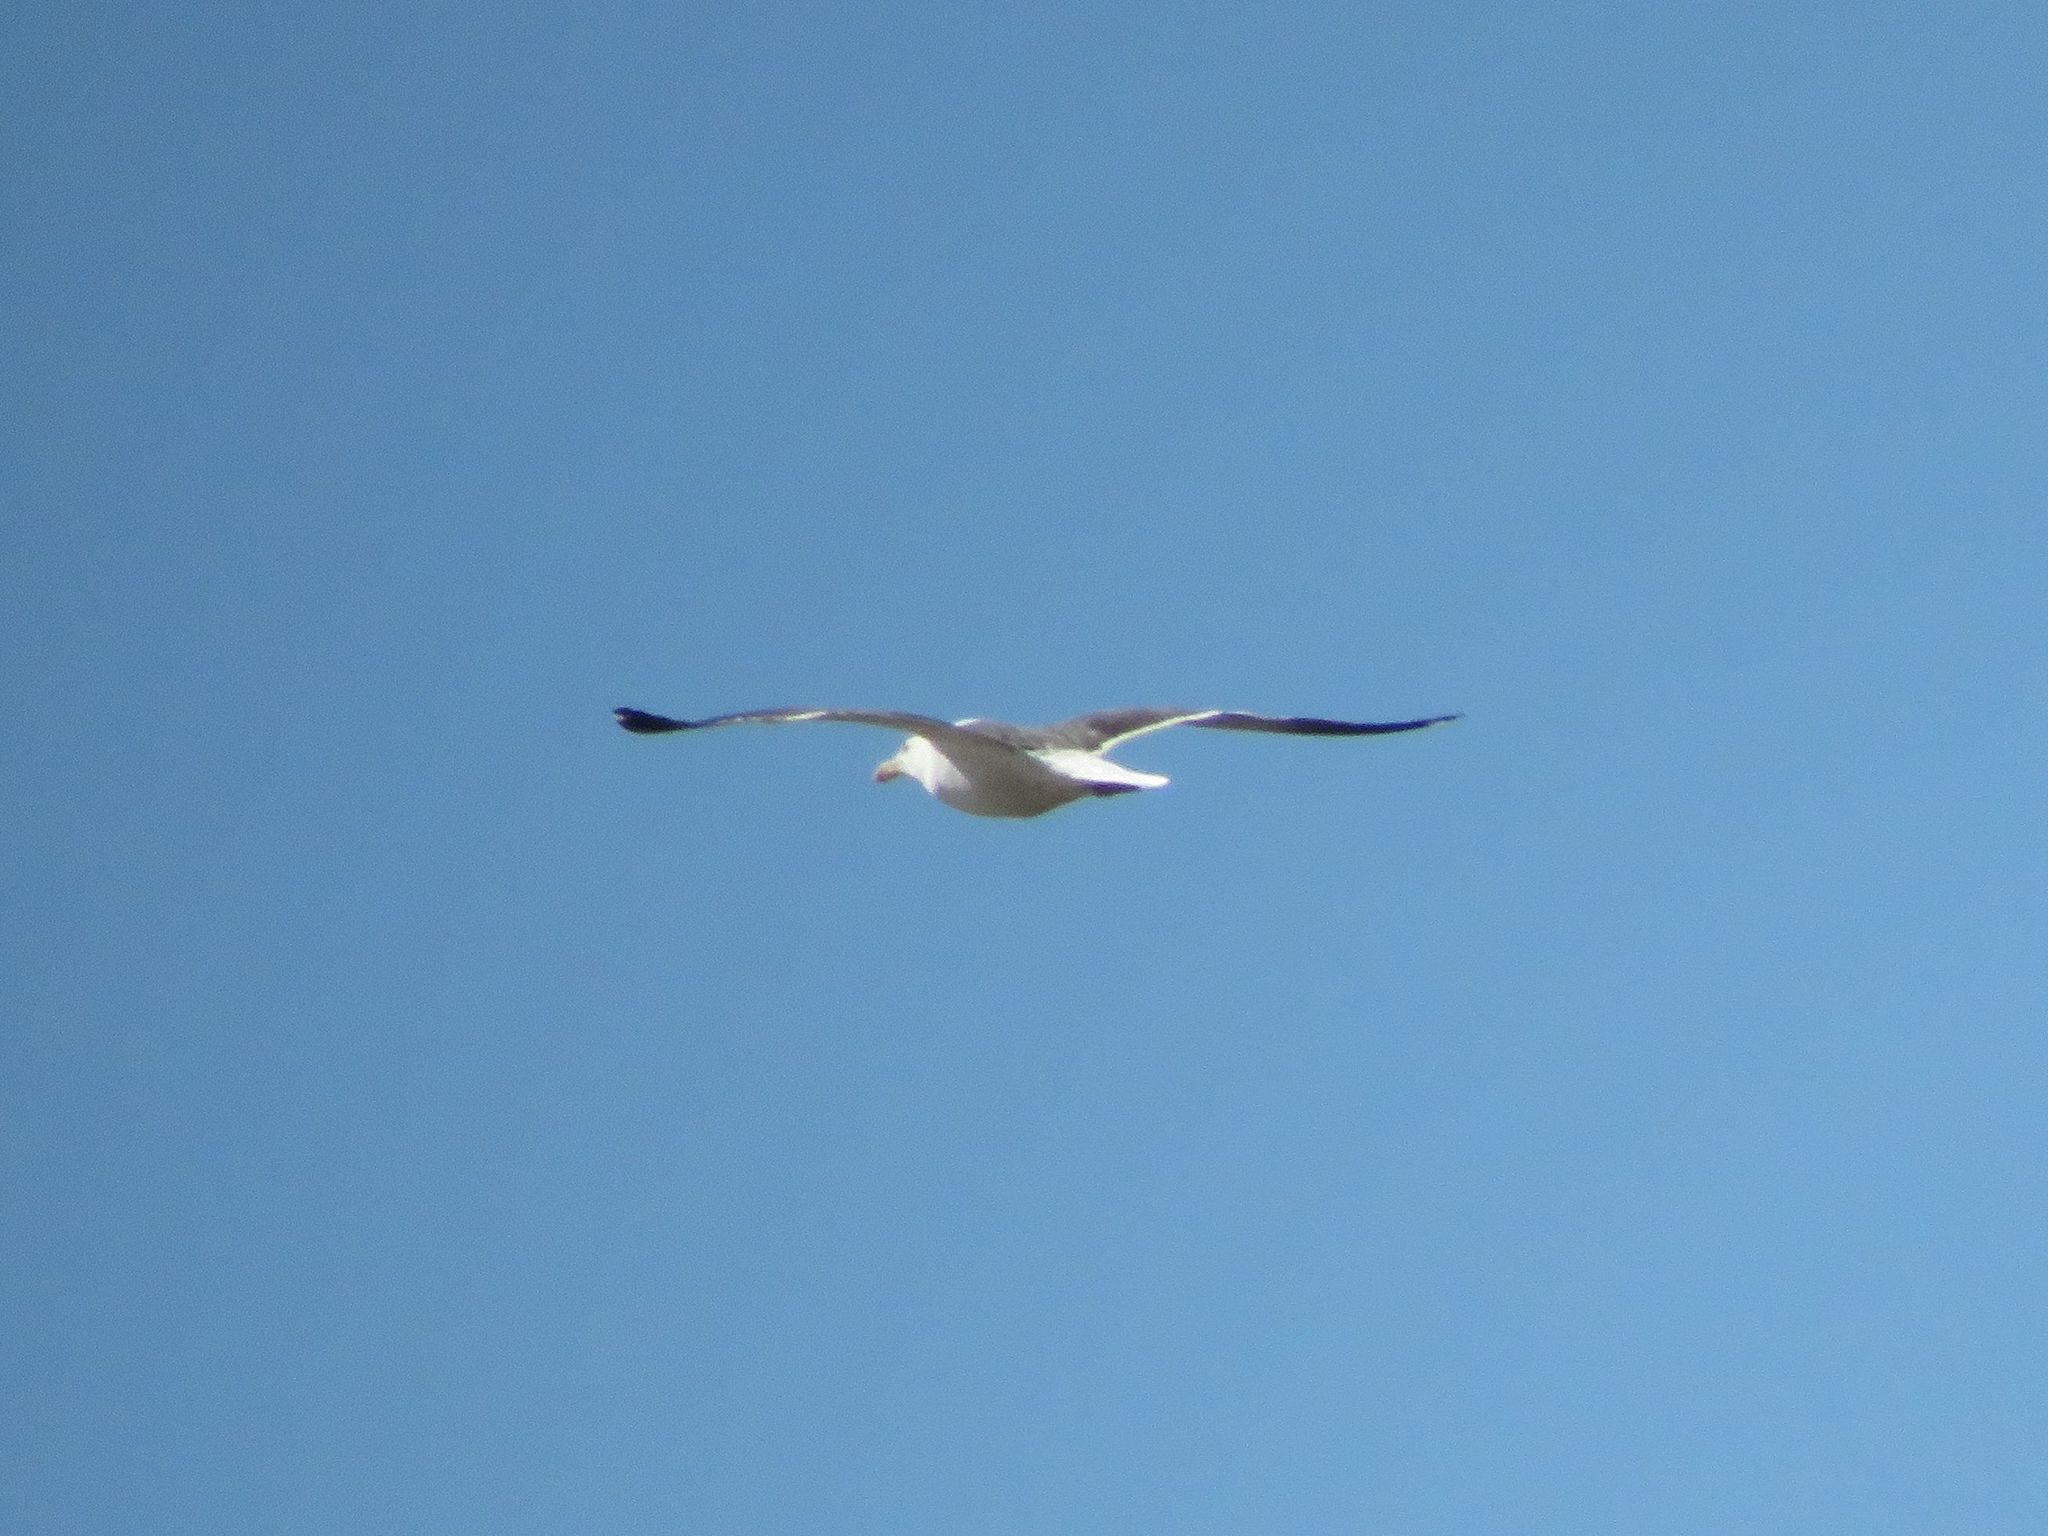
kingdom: Animalia
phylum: Chordata
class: Aves
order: Charadriiformes
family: Laridae
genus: Larus
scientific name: Larus dominicanus
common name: Kelp gull
